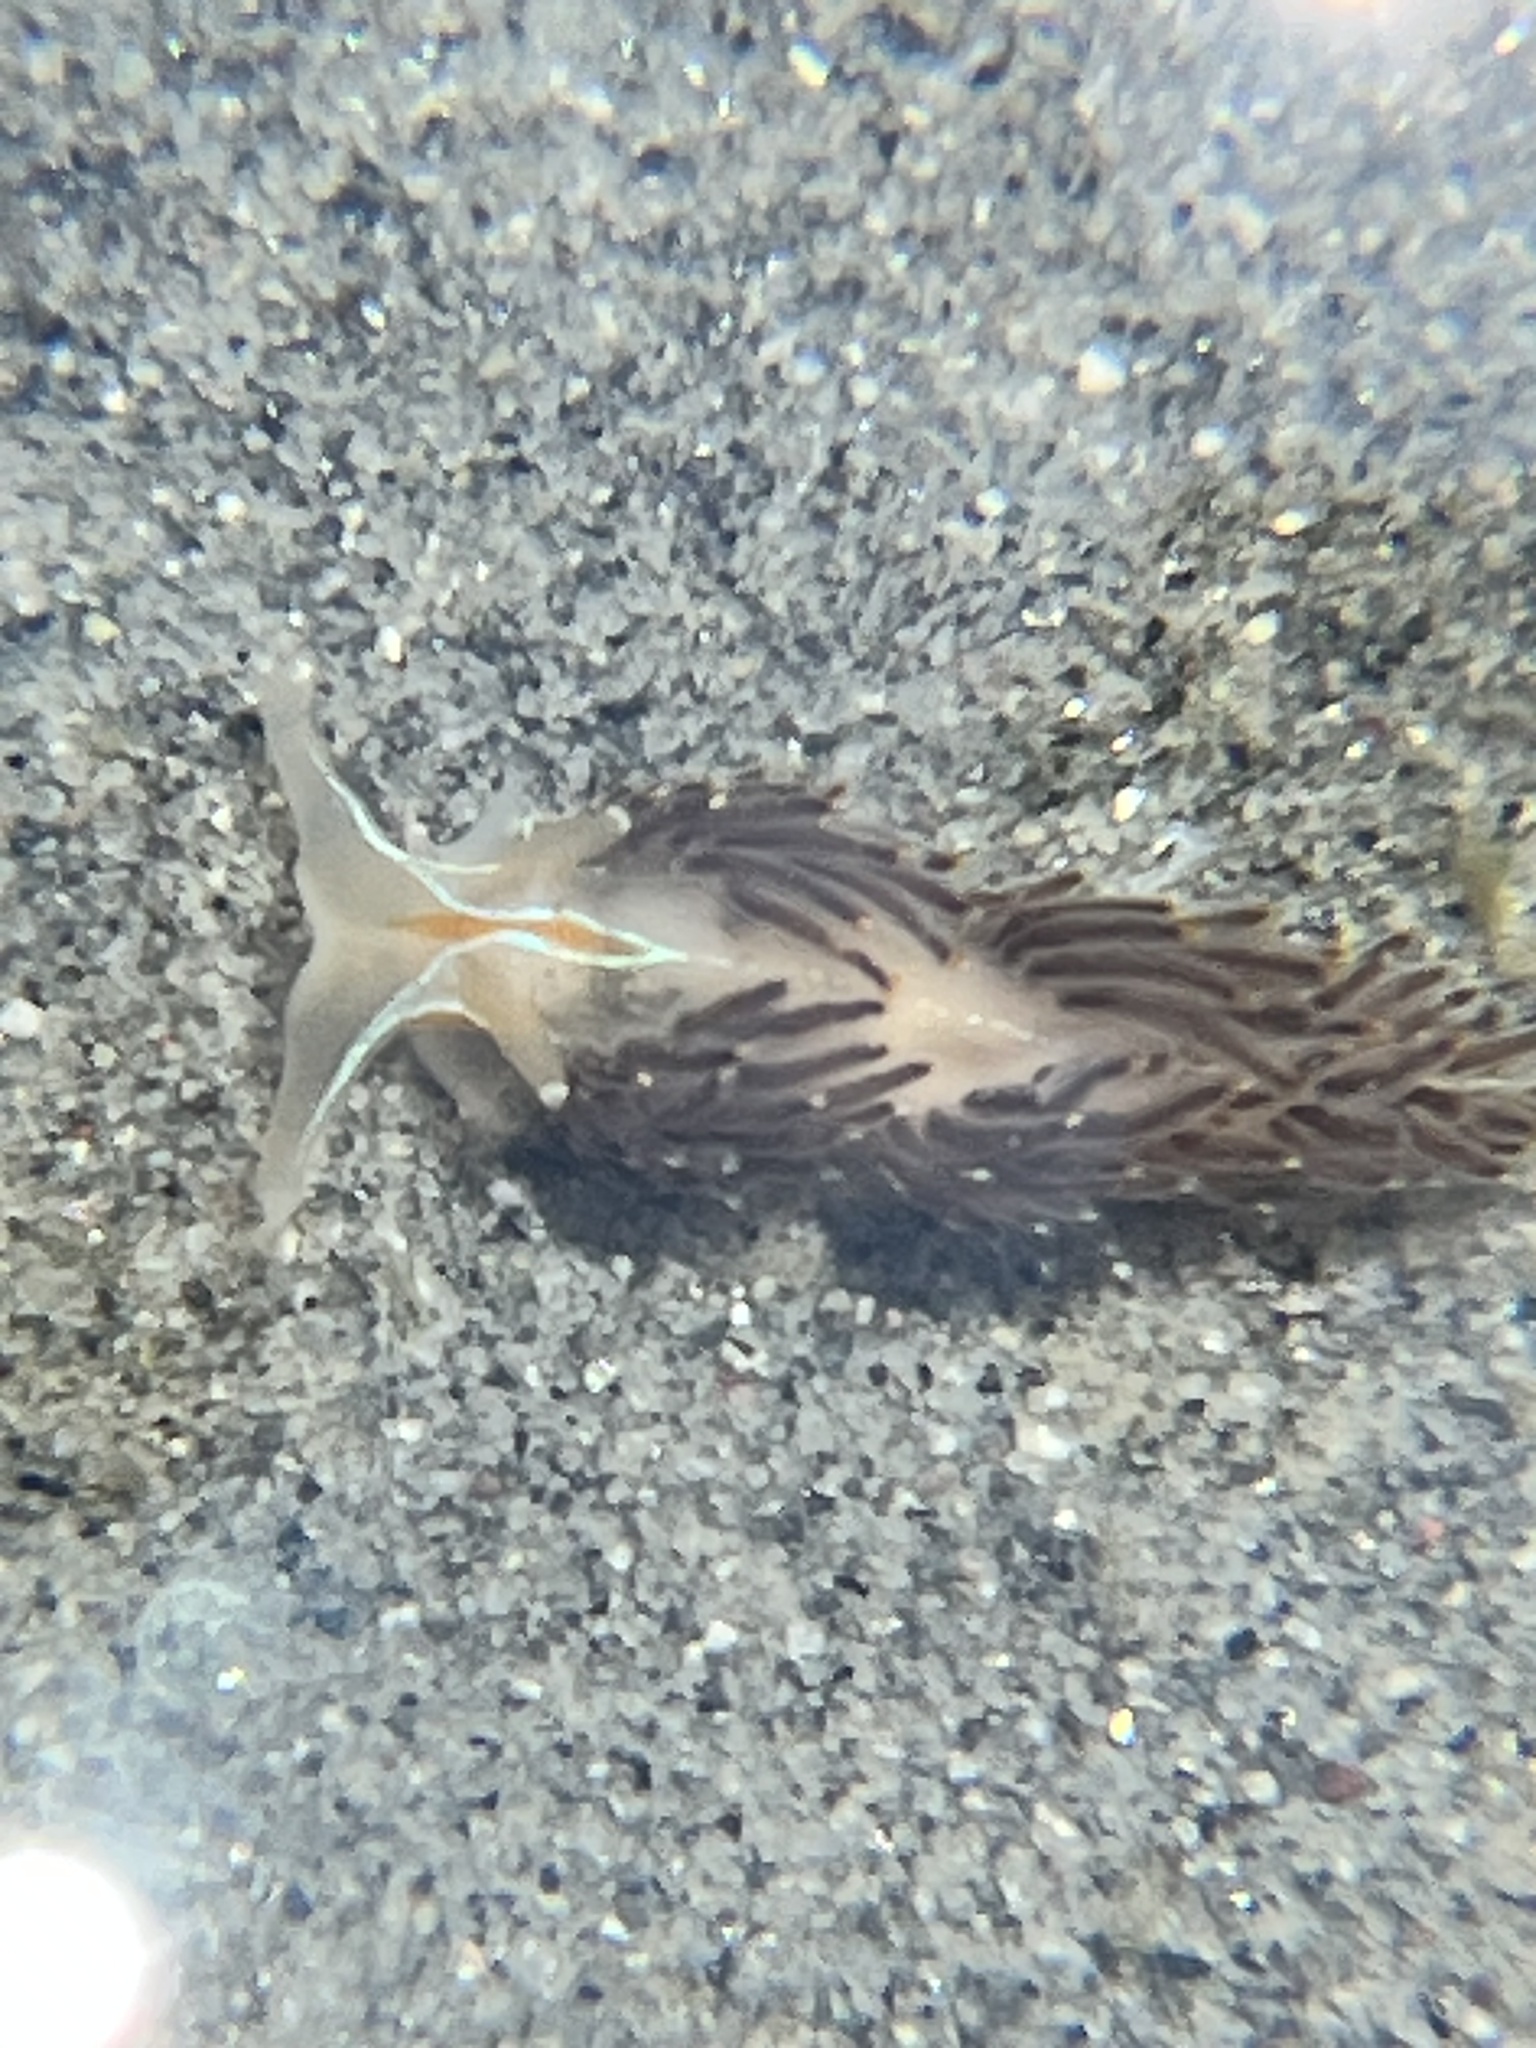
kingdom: Animalia
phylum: Mollusca
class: Gastropoda
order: Nudibranchia
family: Myrrhinidae
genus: Hermissenda
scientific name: Hermissenda crassicornis
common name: Hermissenda
